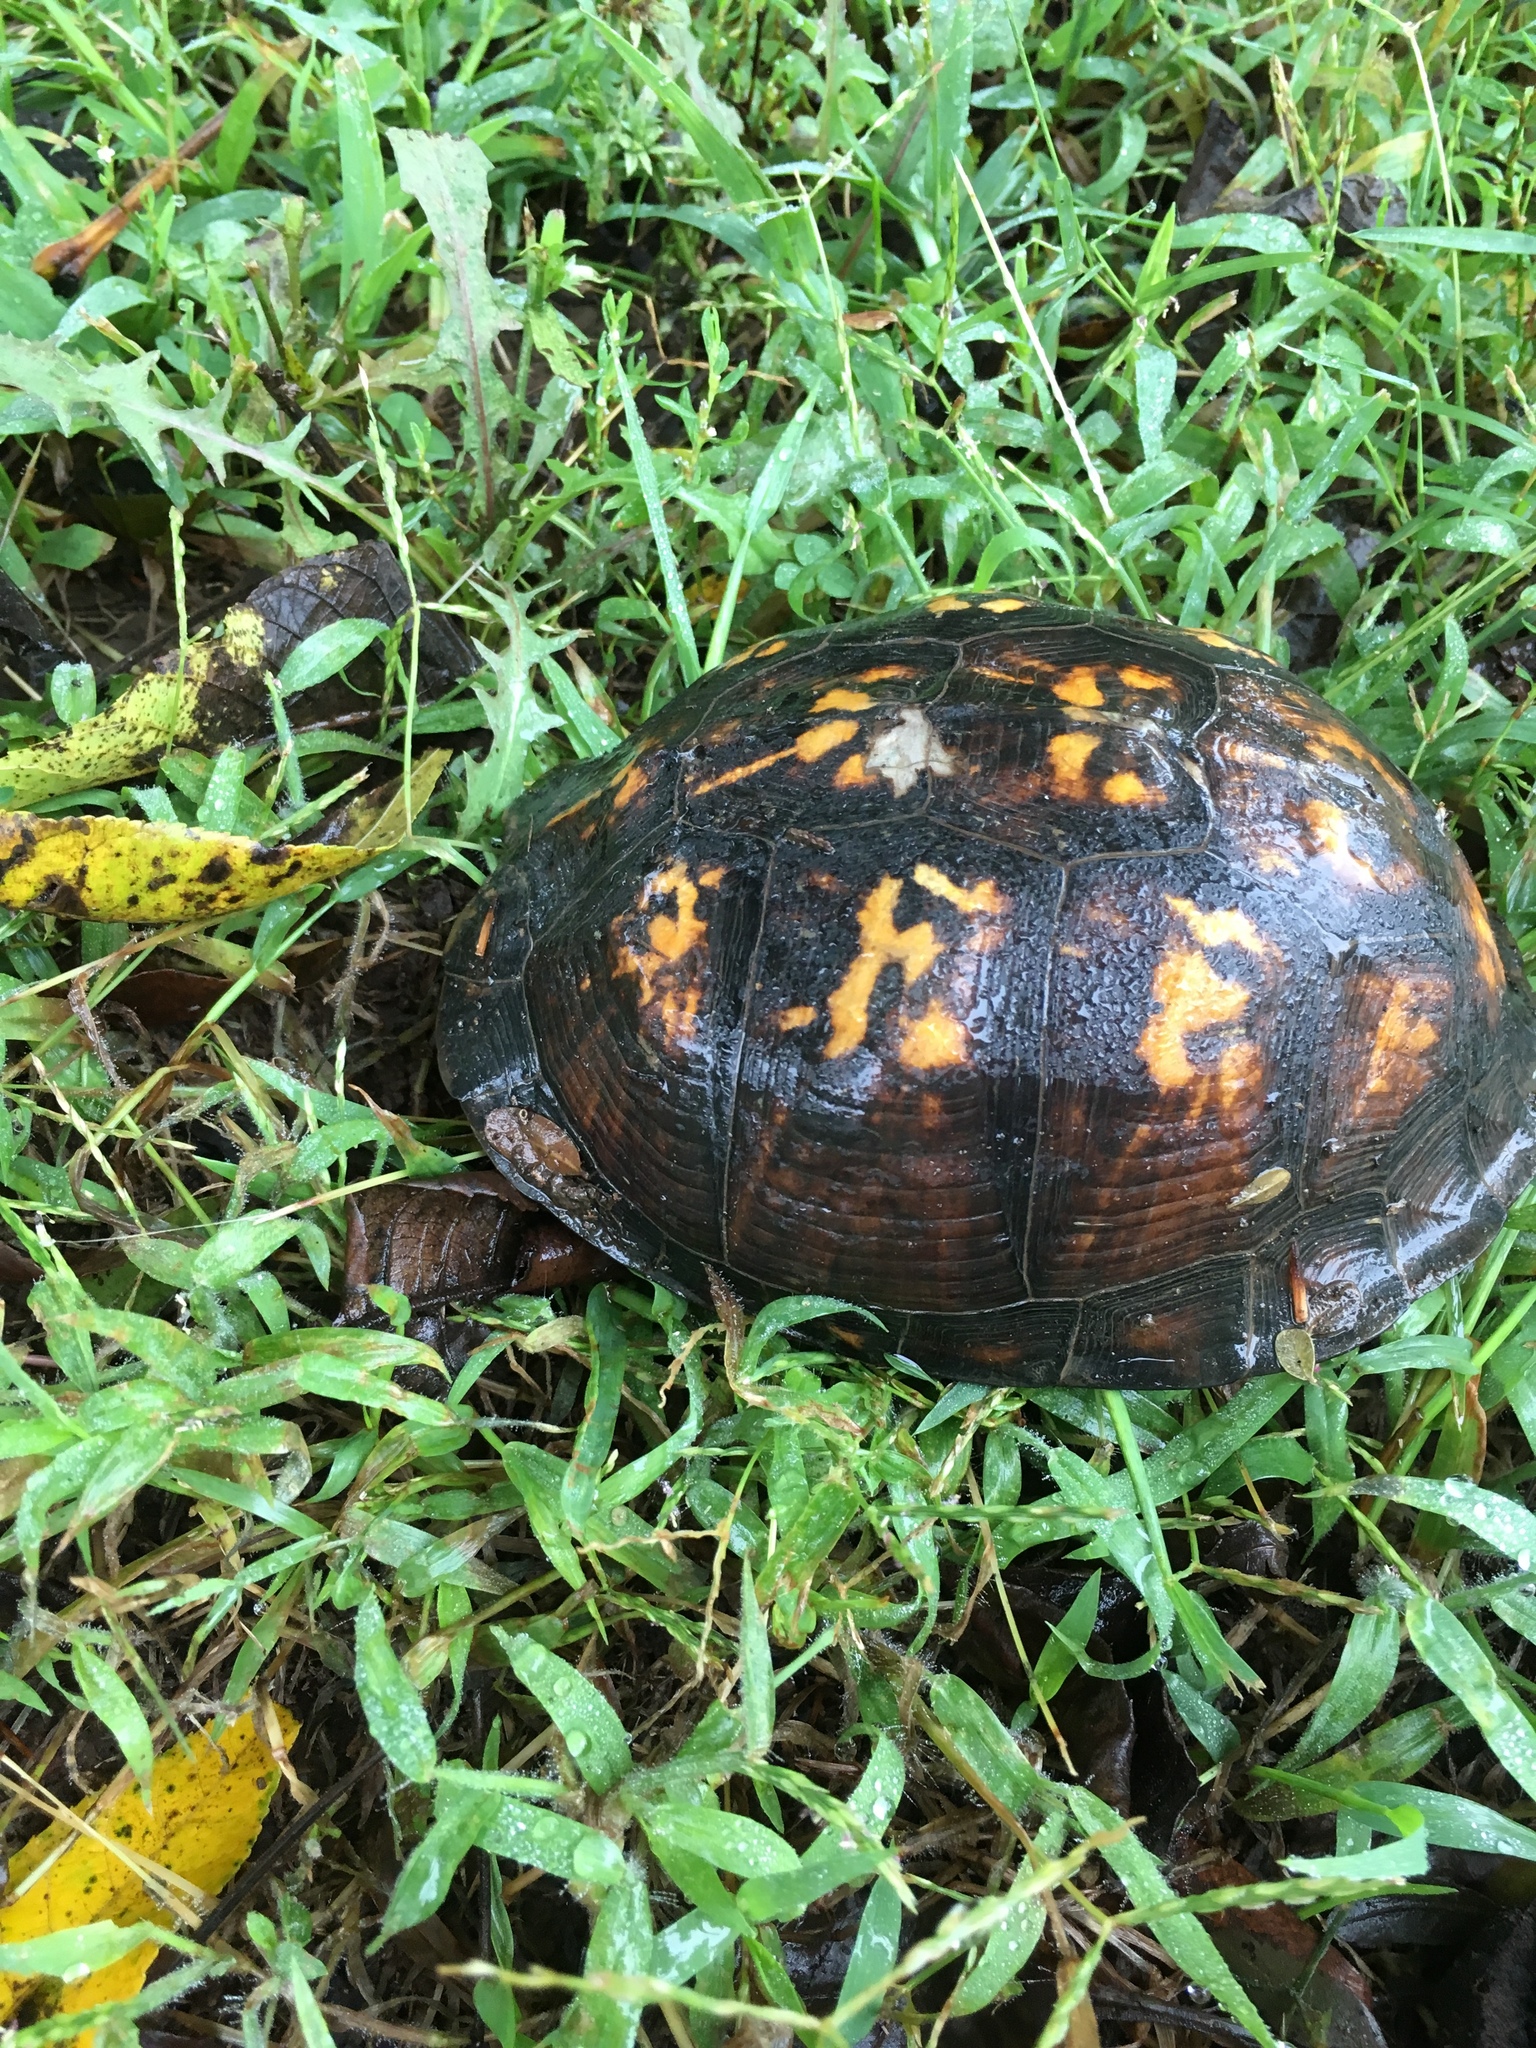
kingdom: Animalia
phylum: Chordata
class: Testudines
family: Emydidae
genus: Terrapene
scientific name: Terrapene carolina
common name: Common box turtle
